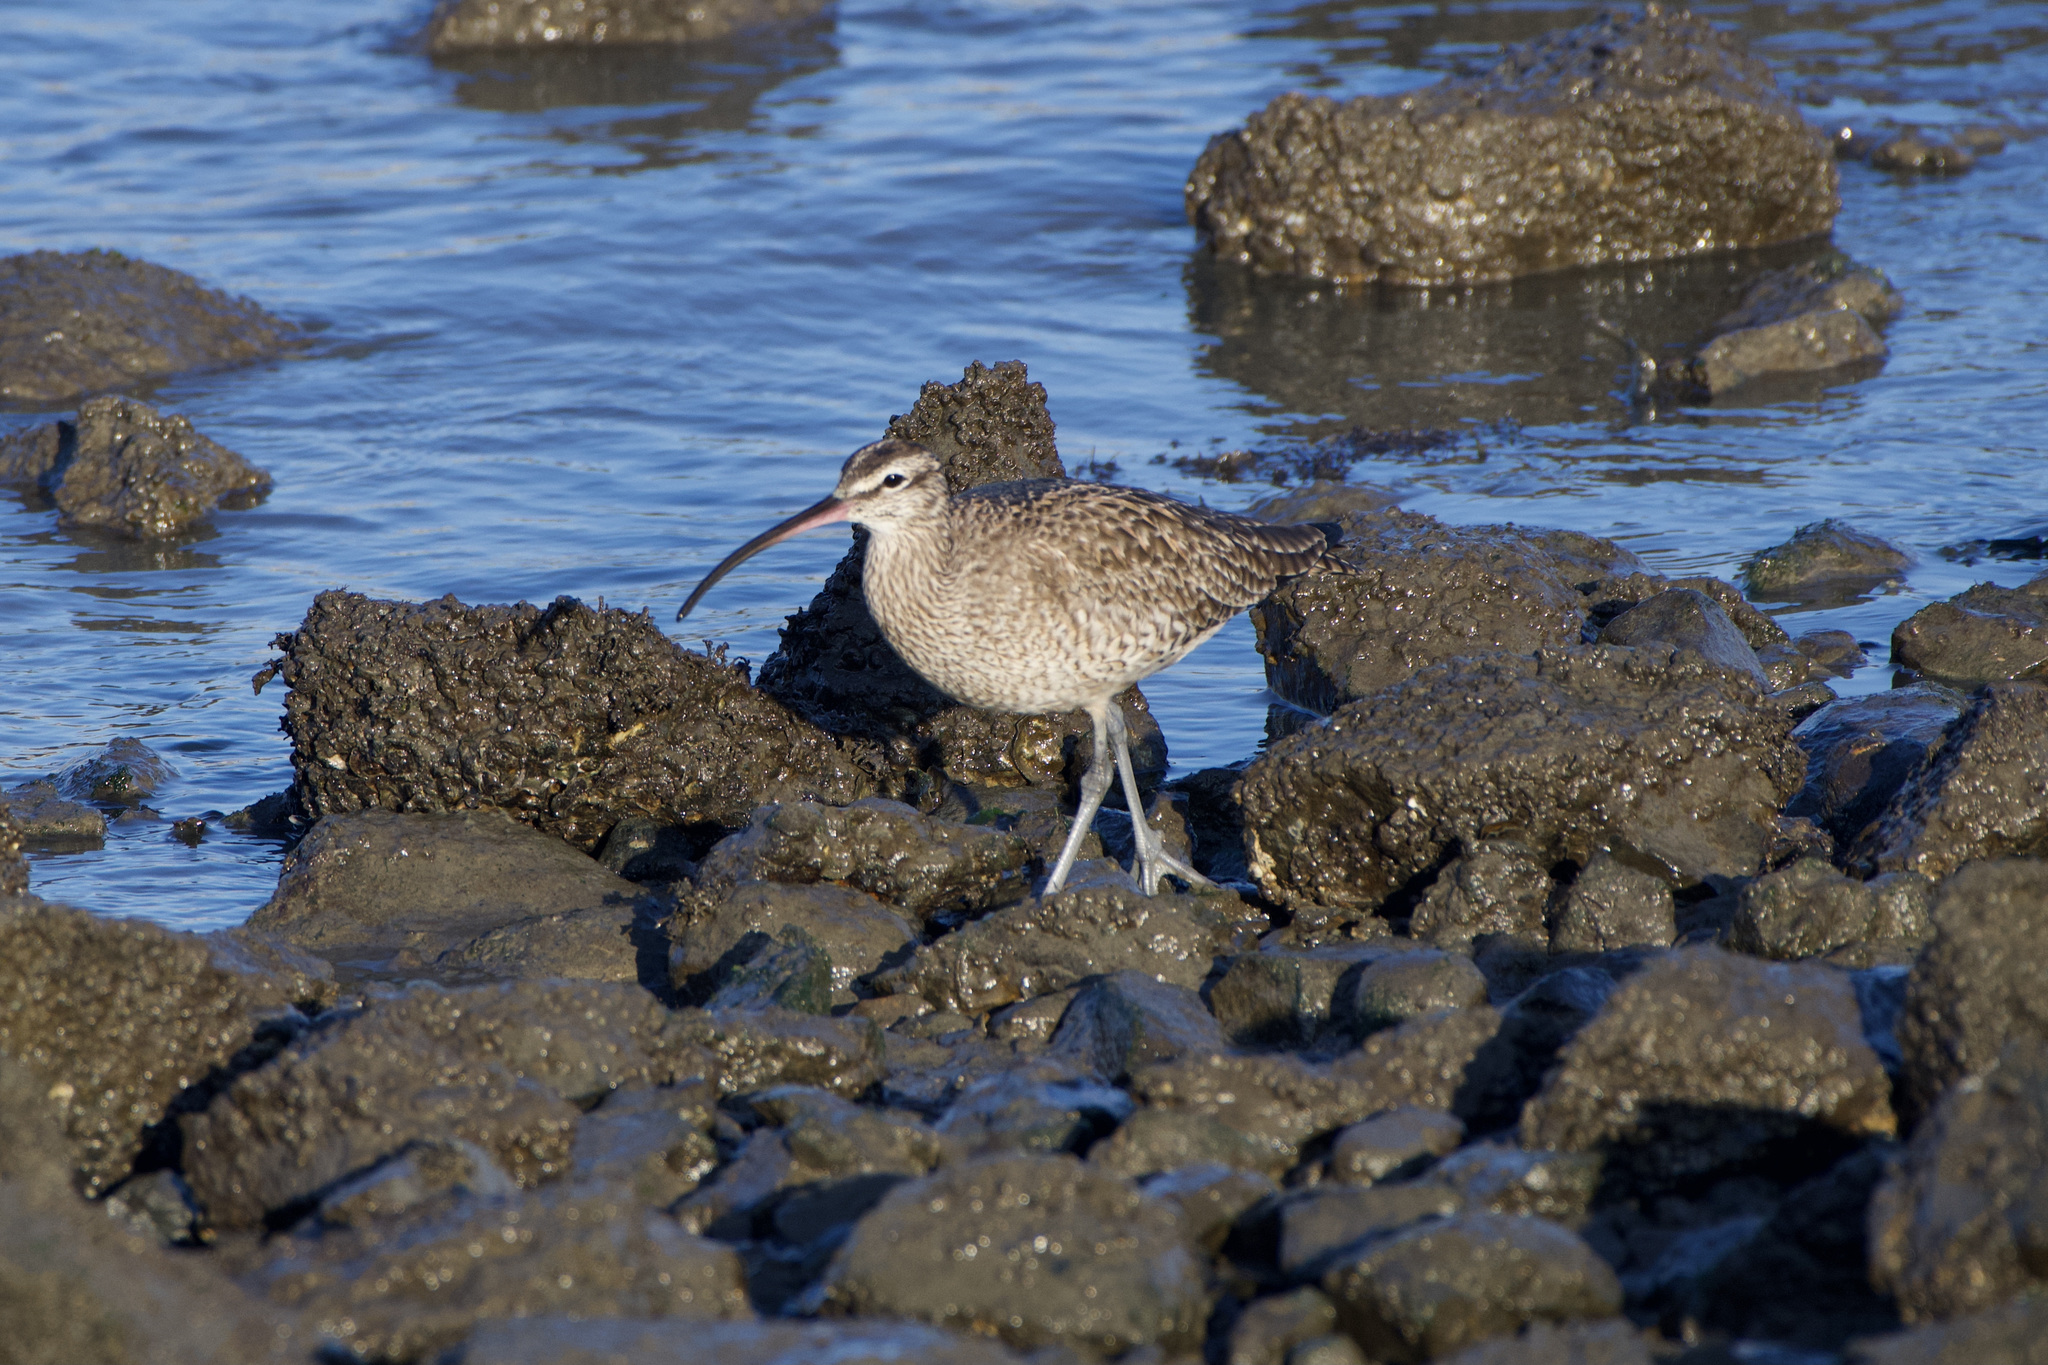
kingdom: Animalia
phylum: Chordata
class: Aves
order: Charadriiformes
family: Scolopacidae
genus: Numenius
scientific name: Numenius phaeopus
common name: Whimbrel
